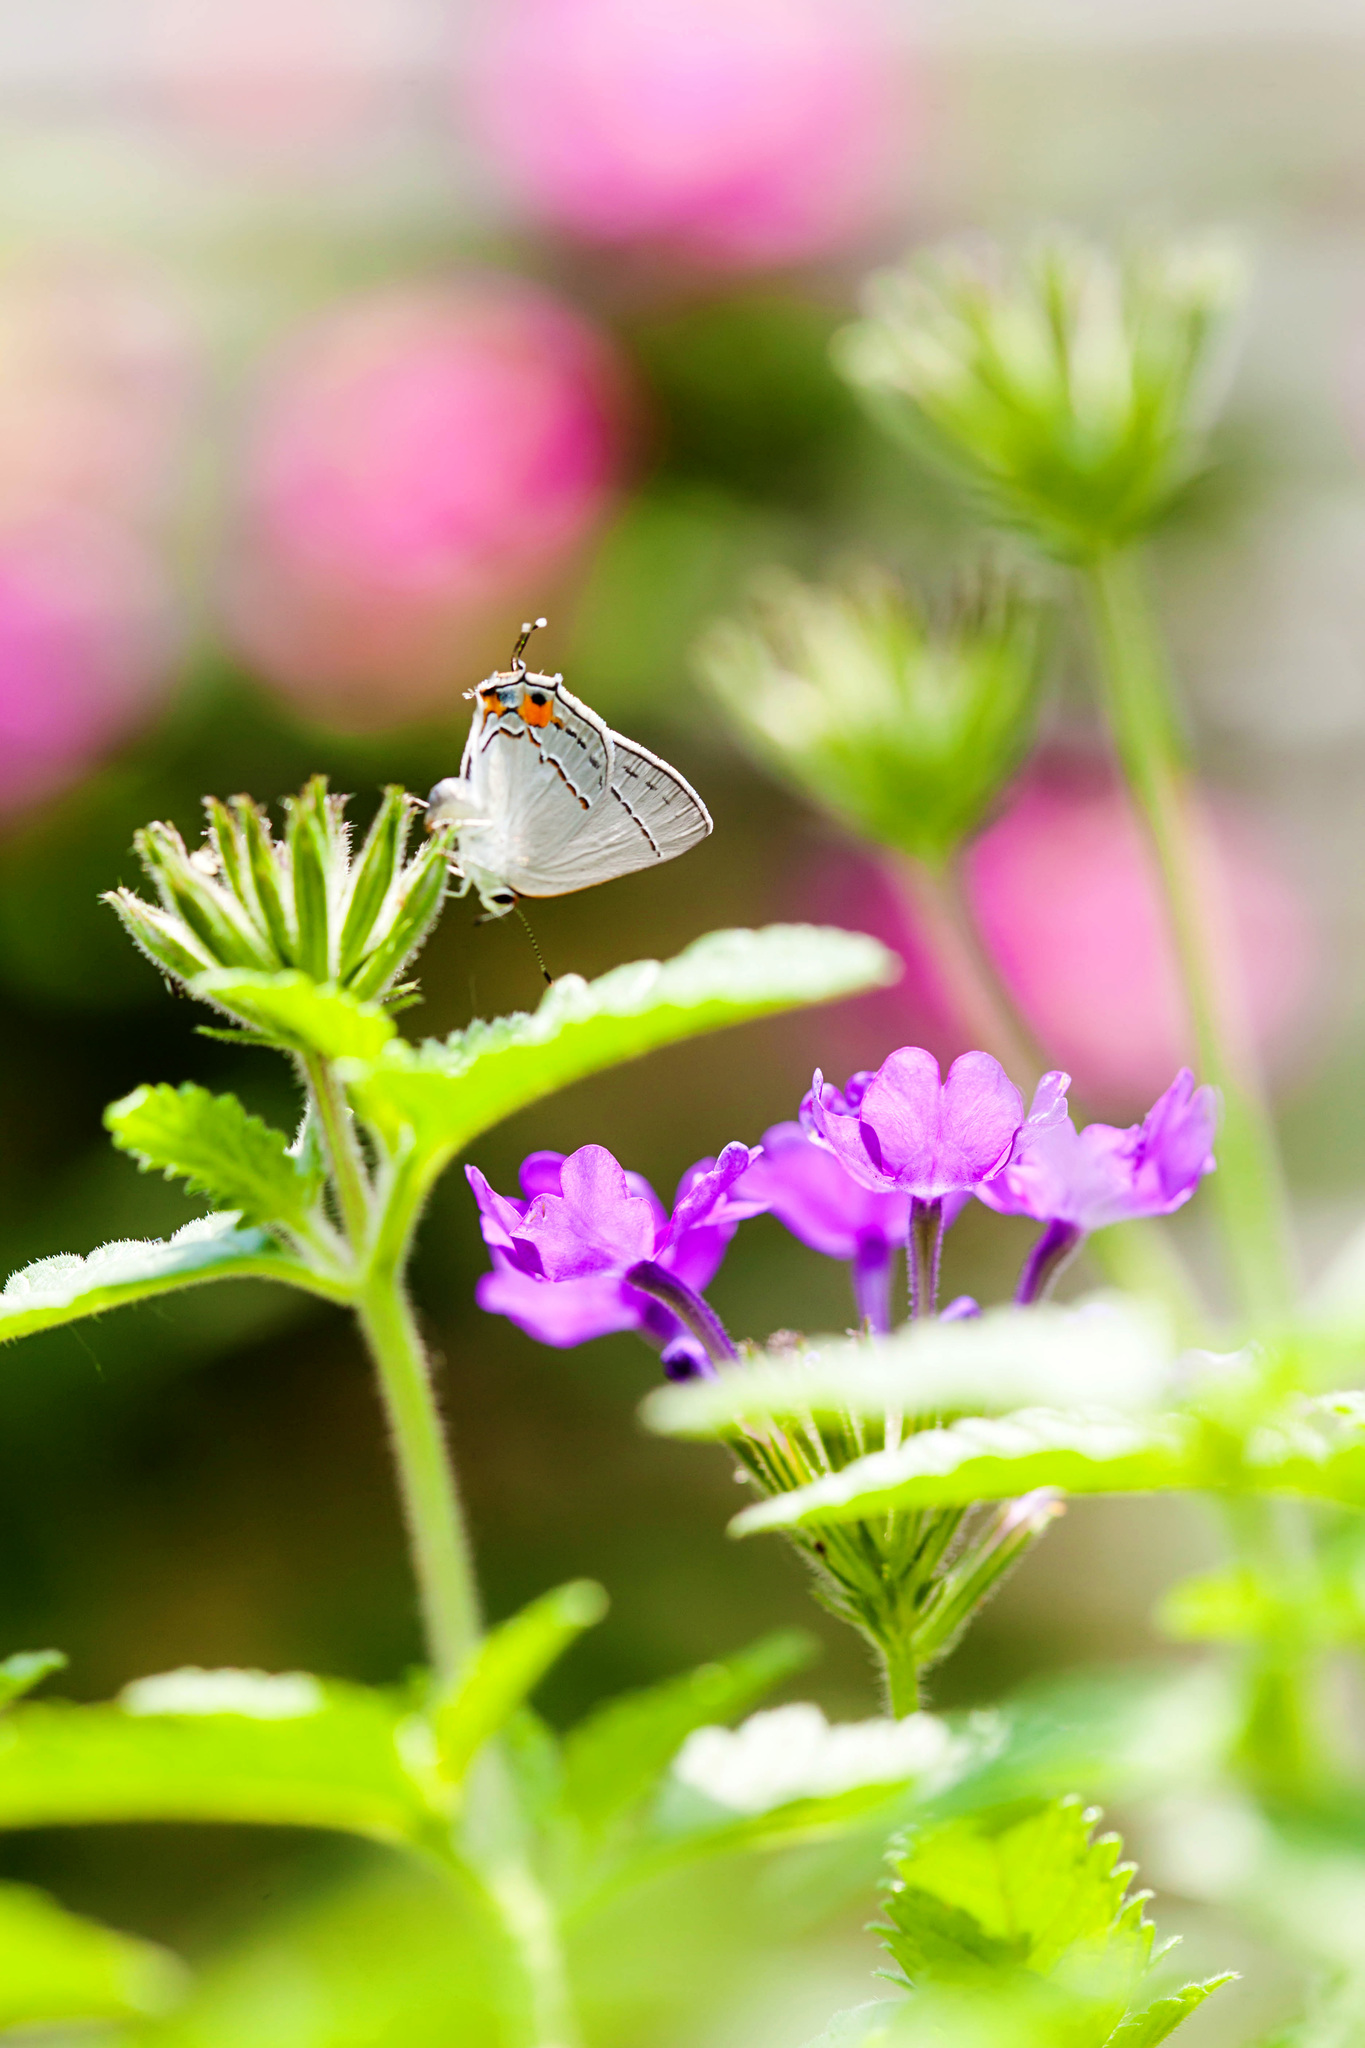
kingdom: Animalia
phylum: Arthropoda
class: Insecta
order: Lepidoptera
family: Lycaenidae
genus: Strymon
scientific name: Strymon melinus
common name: Gray hairstreak
